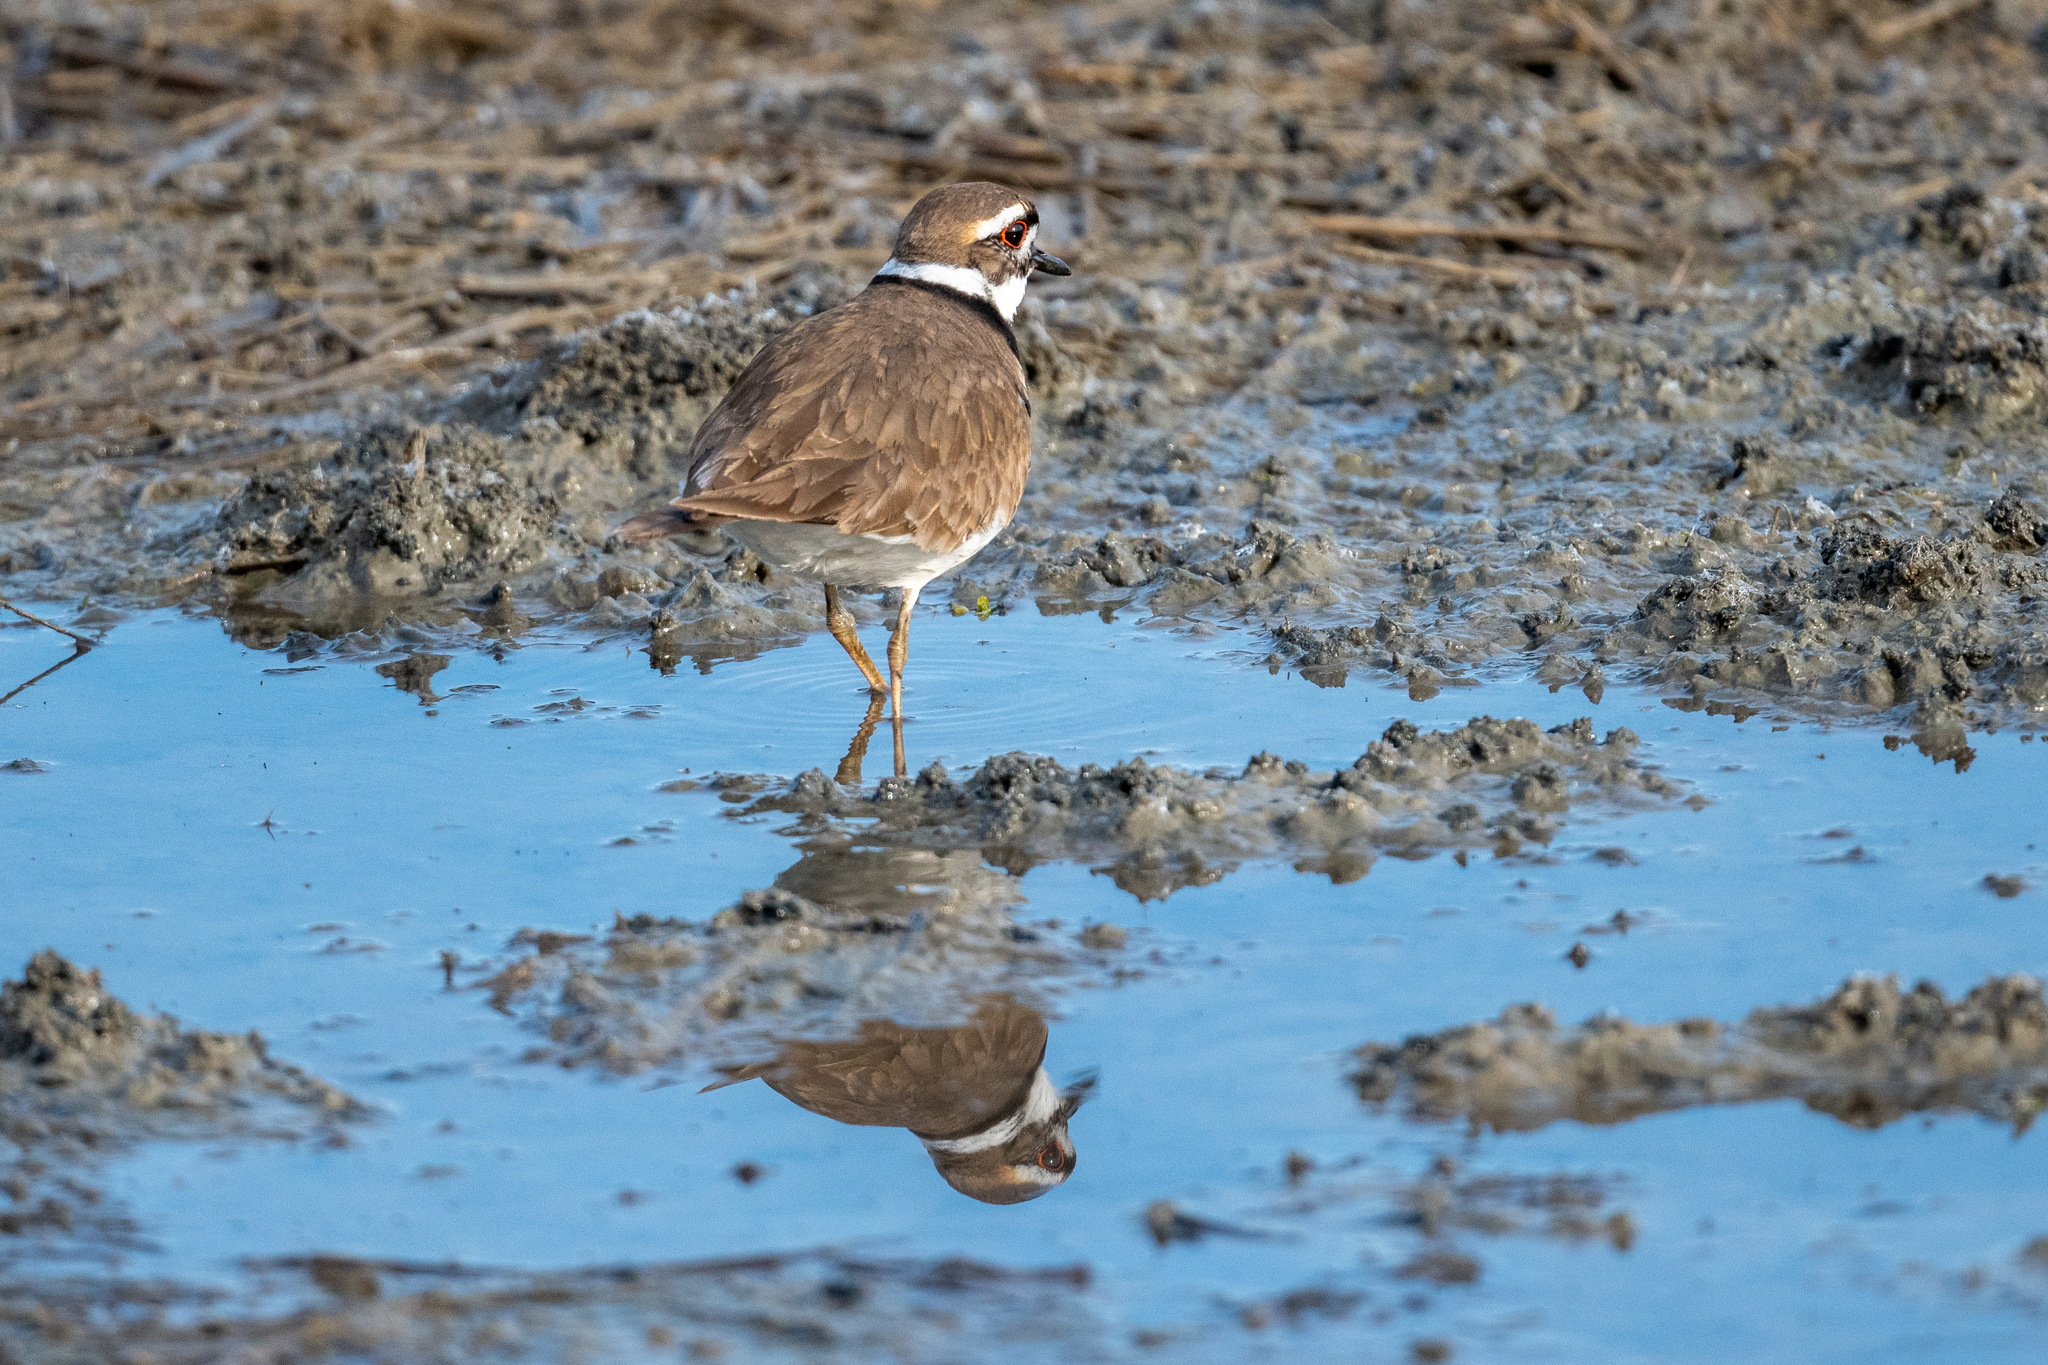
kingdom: Animalia
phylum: Chordata
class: Aves
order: Charadriiformes
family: Charadriidae
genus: Charadrius
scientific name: Charadrius vociferus
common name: Killdeer
